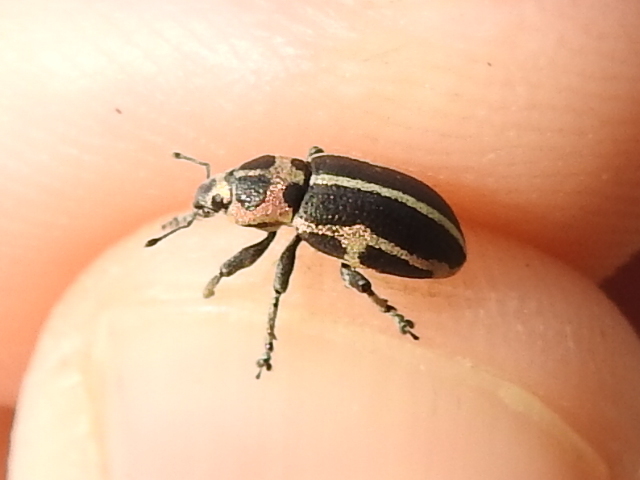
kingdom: Animalia
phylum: Arthropoda
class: Insecta
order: Coleoptera
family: Curculionidae
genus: Eudiagogus
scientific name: Eudiagogus pulcher
